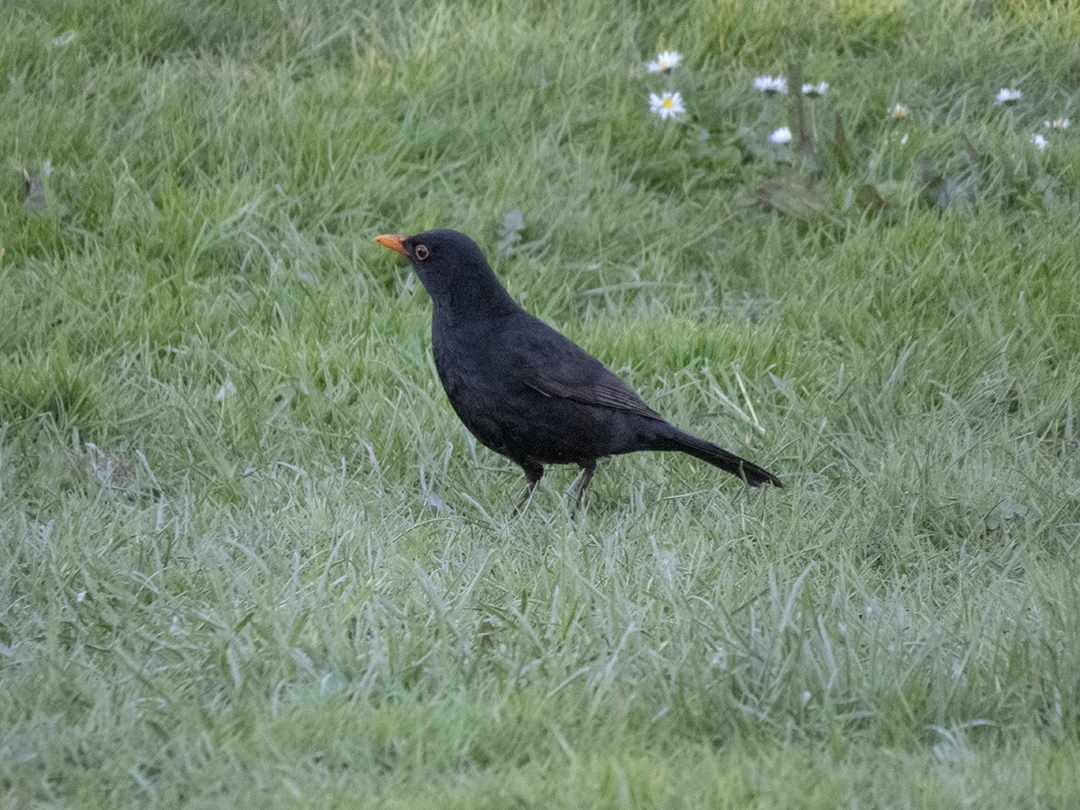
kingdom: Animalia
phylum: Chordata
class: Aves
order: Passeriformes
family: Turdidae
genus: Turdus
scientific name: Turdus merula
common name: Common blackbird
